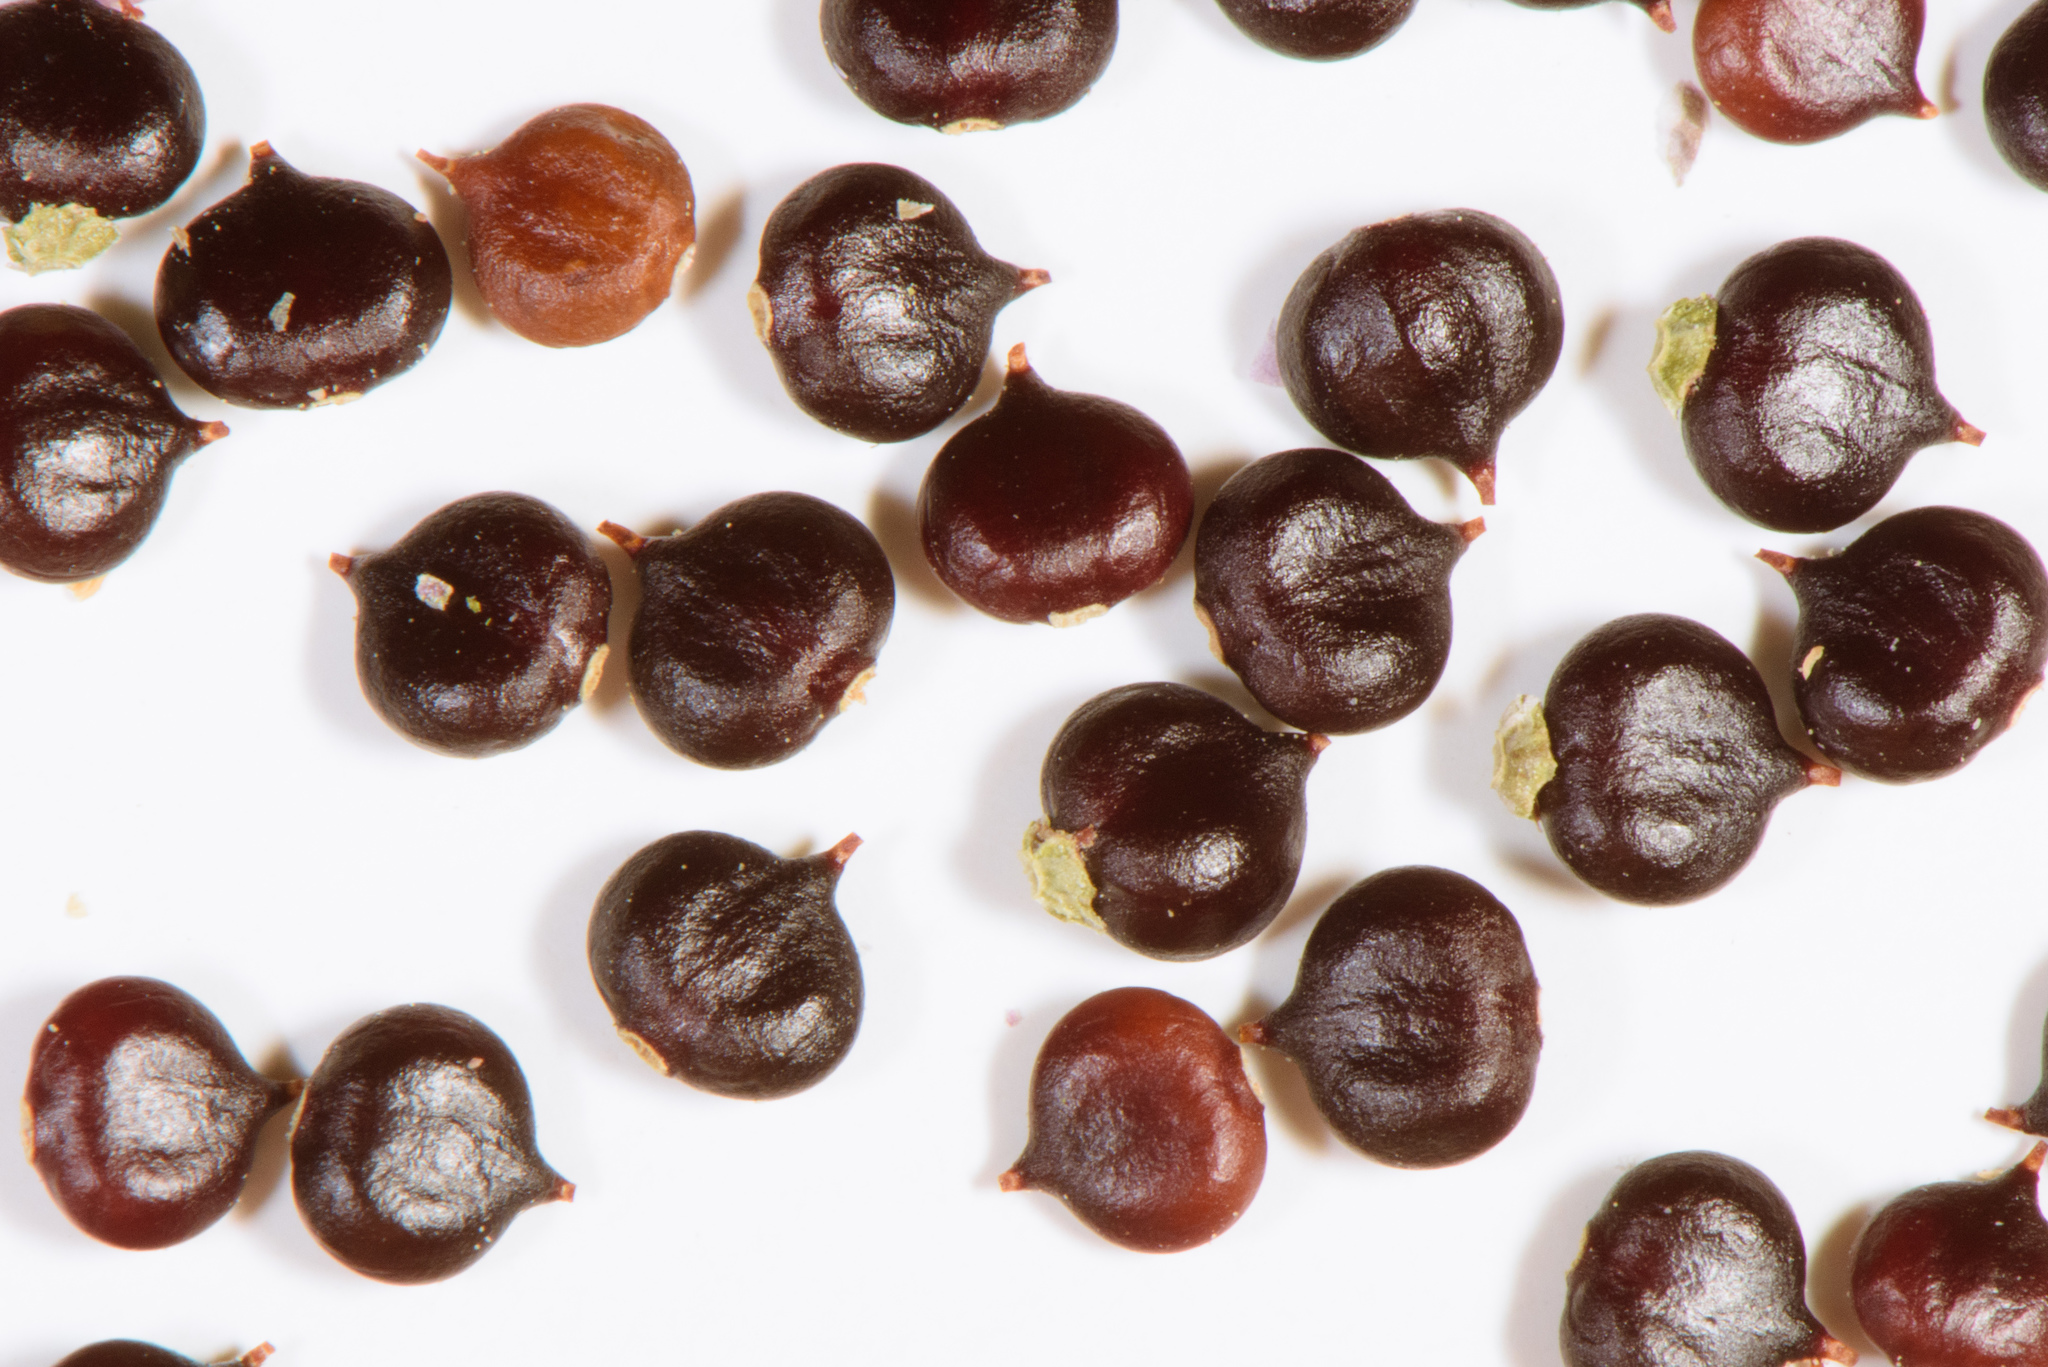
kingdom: Plantae
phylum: Tracheophyta
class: Magnoliopsida
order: Caryophyllales
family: Polygonaceae
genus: Persicaria
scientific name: Persicaria orientalis
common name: Kiss-me-over-the-garden-gate
